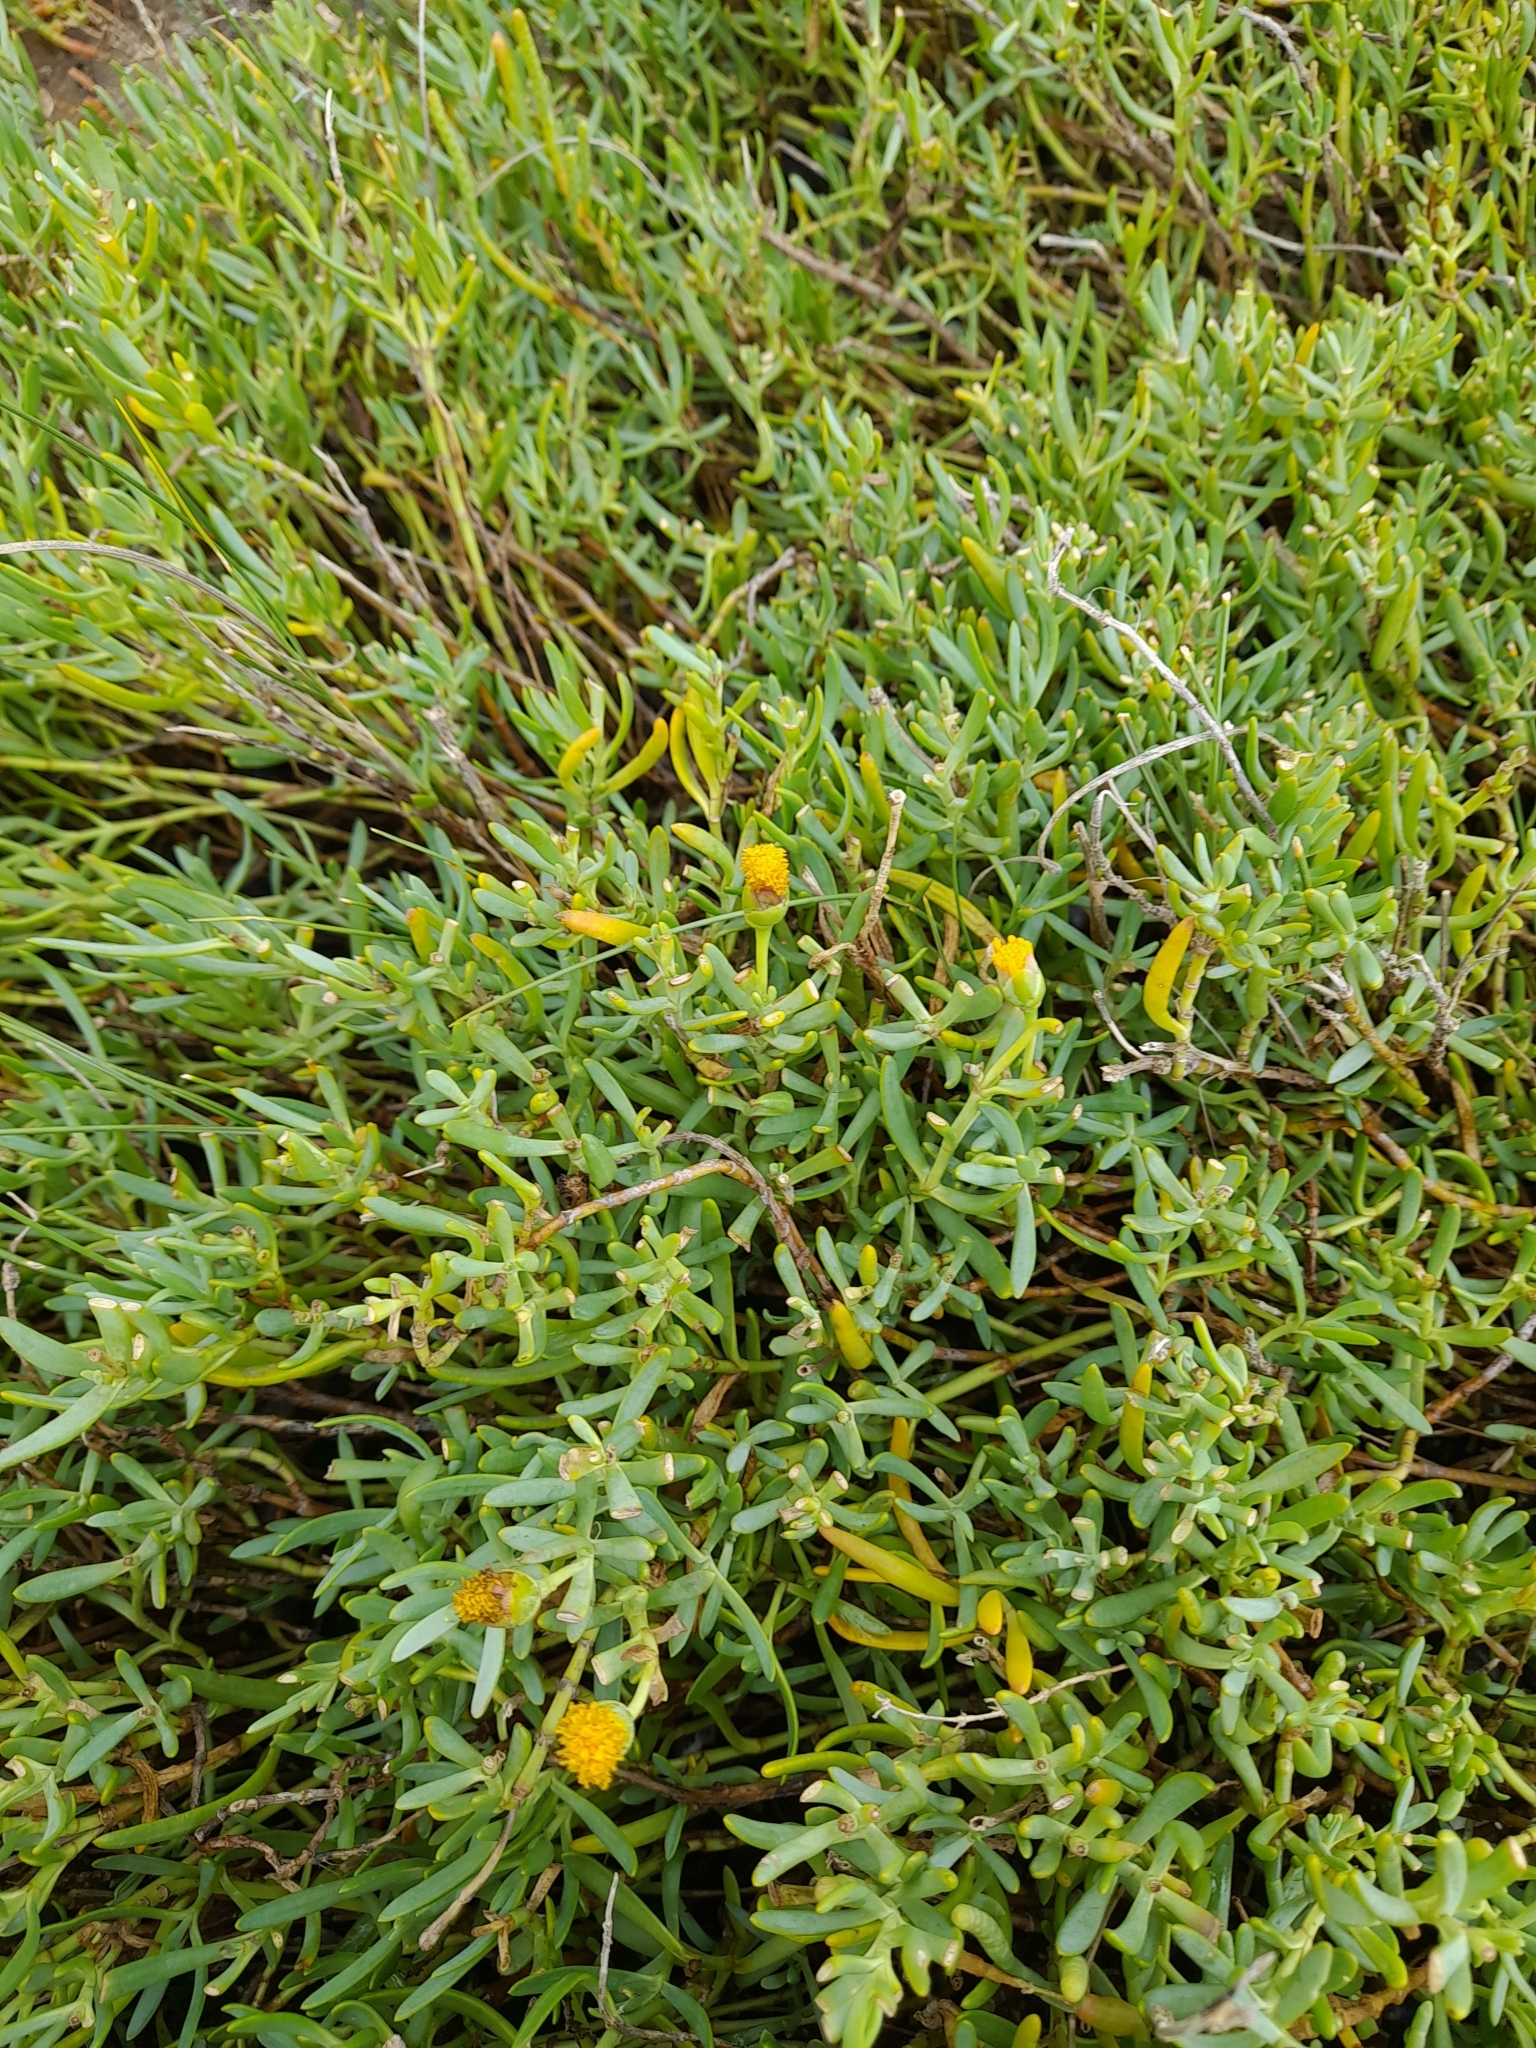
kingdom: Plantae
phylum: Tracheophyta
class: Magnoliopsida
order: Asterales
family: Asteraceae
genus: Jaumea
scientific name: Jaumea linearifolia
